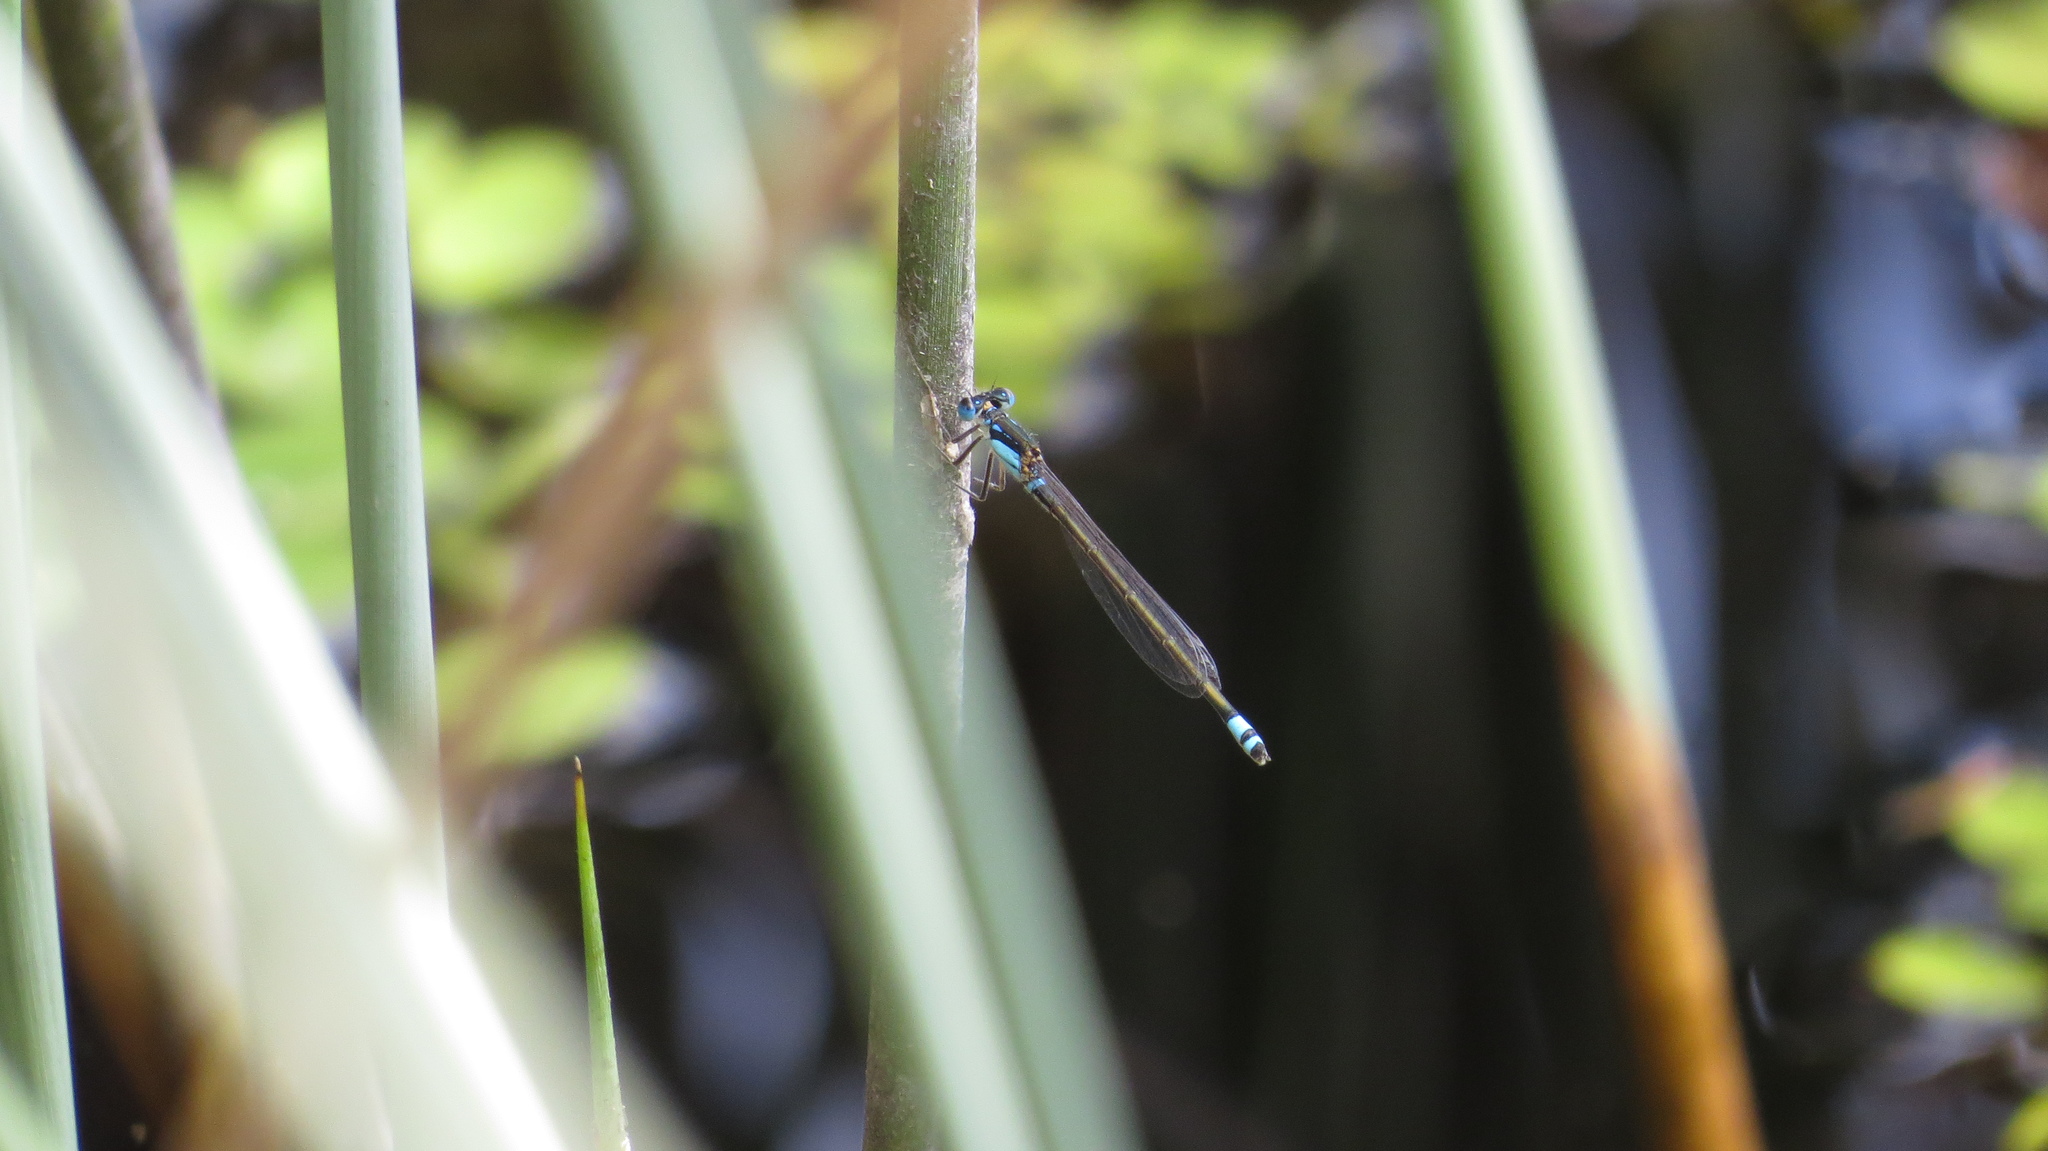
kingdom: Animalia
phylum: Arthropoda
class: Insecta
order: Odonata
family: Coenagrionidae
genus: Ischnura
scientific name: Ischnura heterosticta
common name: Common bluetail
